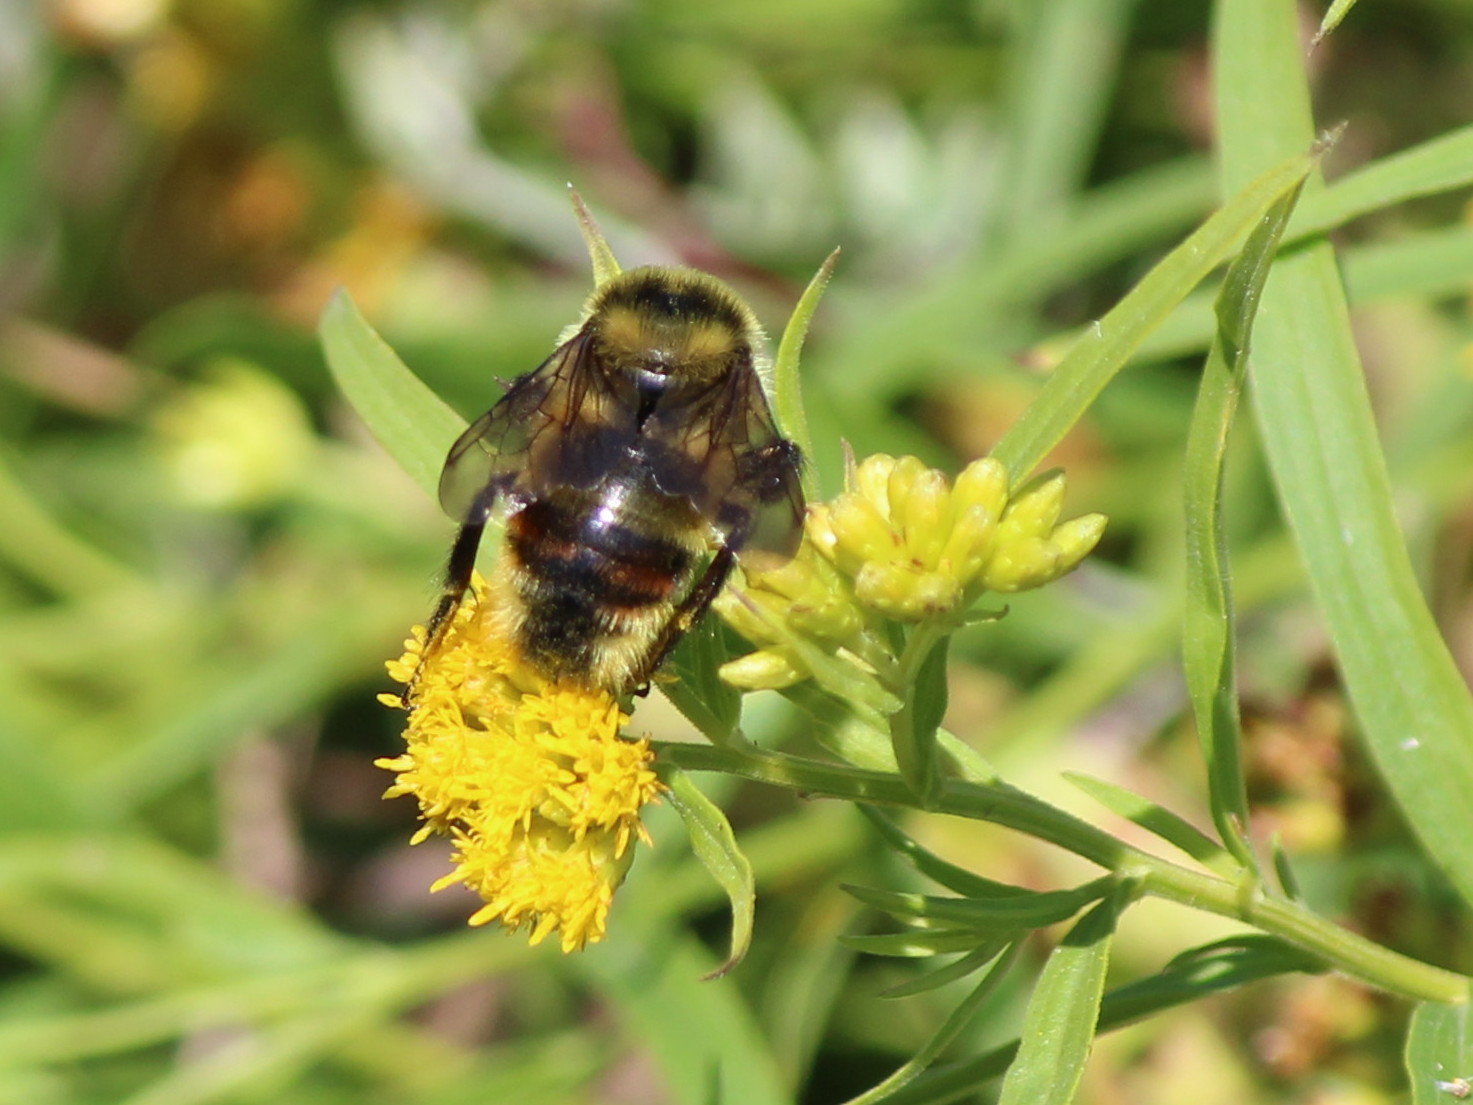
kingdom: Animalia
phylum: Arthropoda
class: Insecta
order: Hymenoptera
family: Apidae
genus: Bombus
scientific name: Bombus rufocinctus
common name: Red-belted bumble bee
